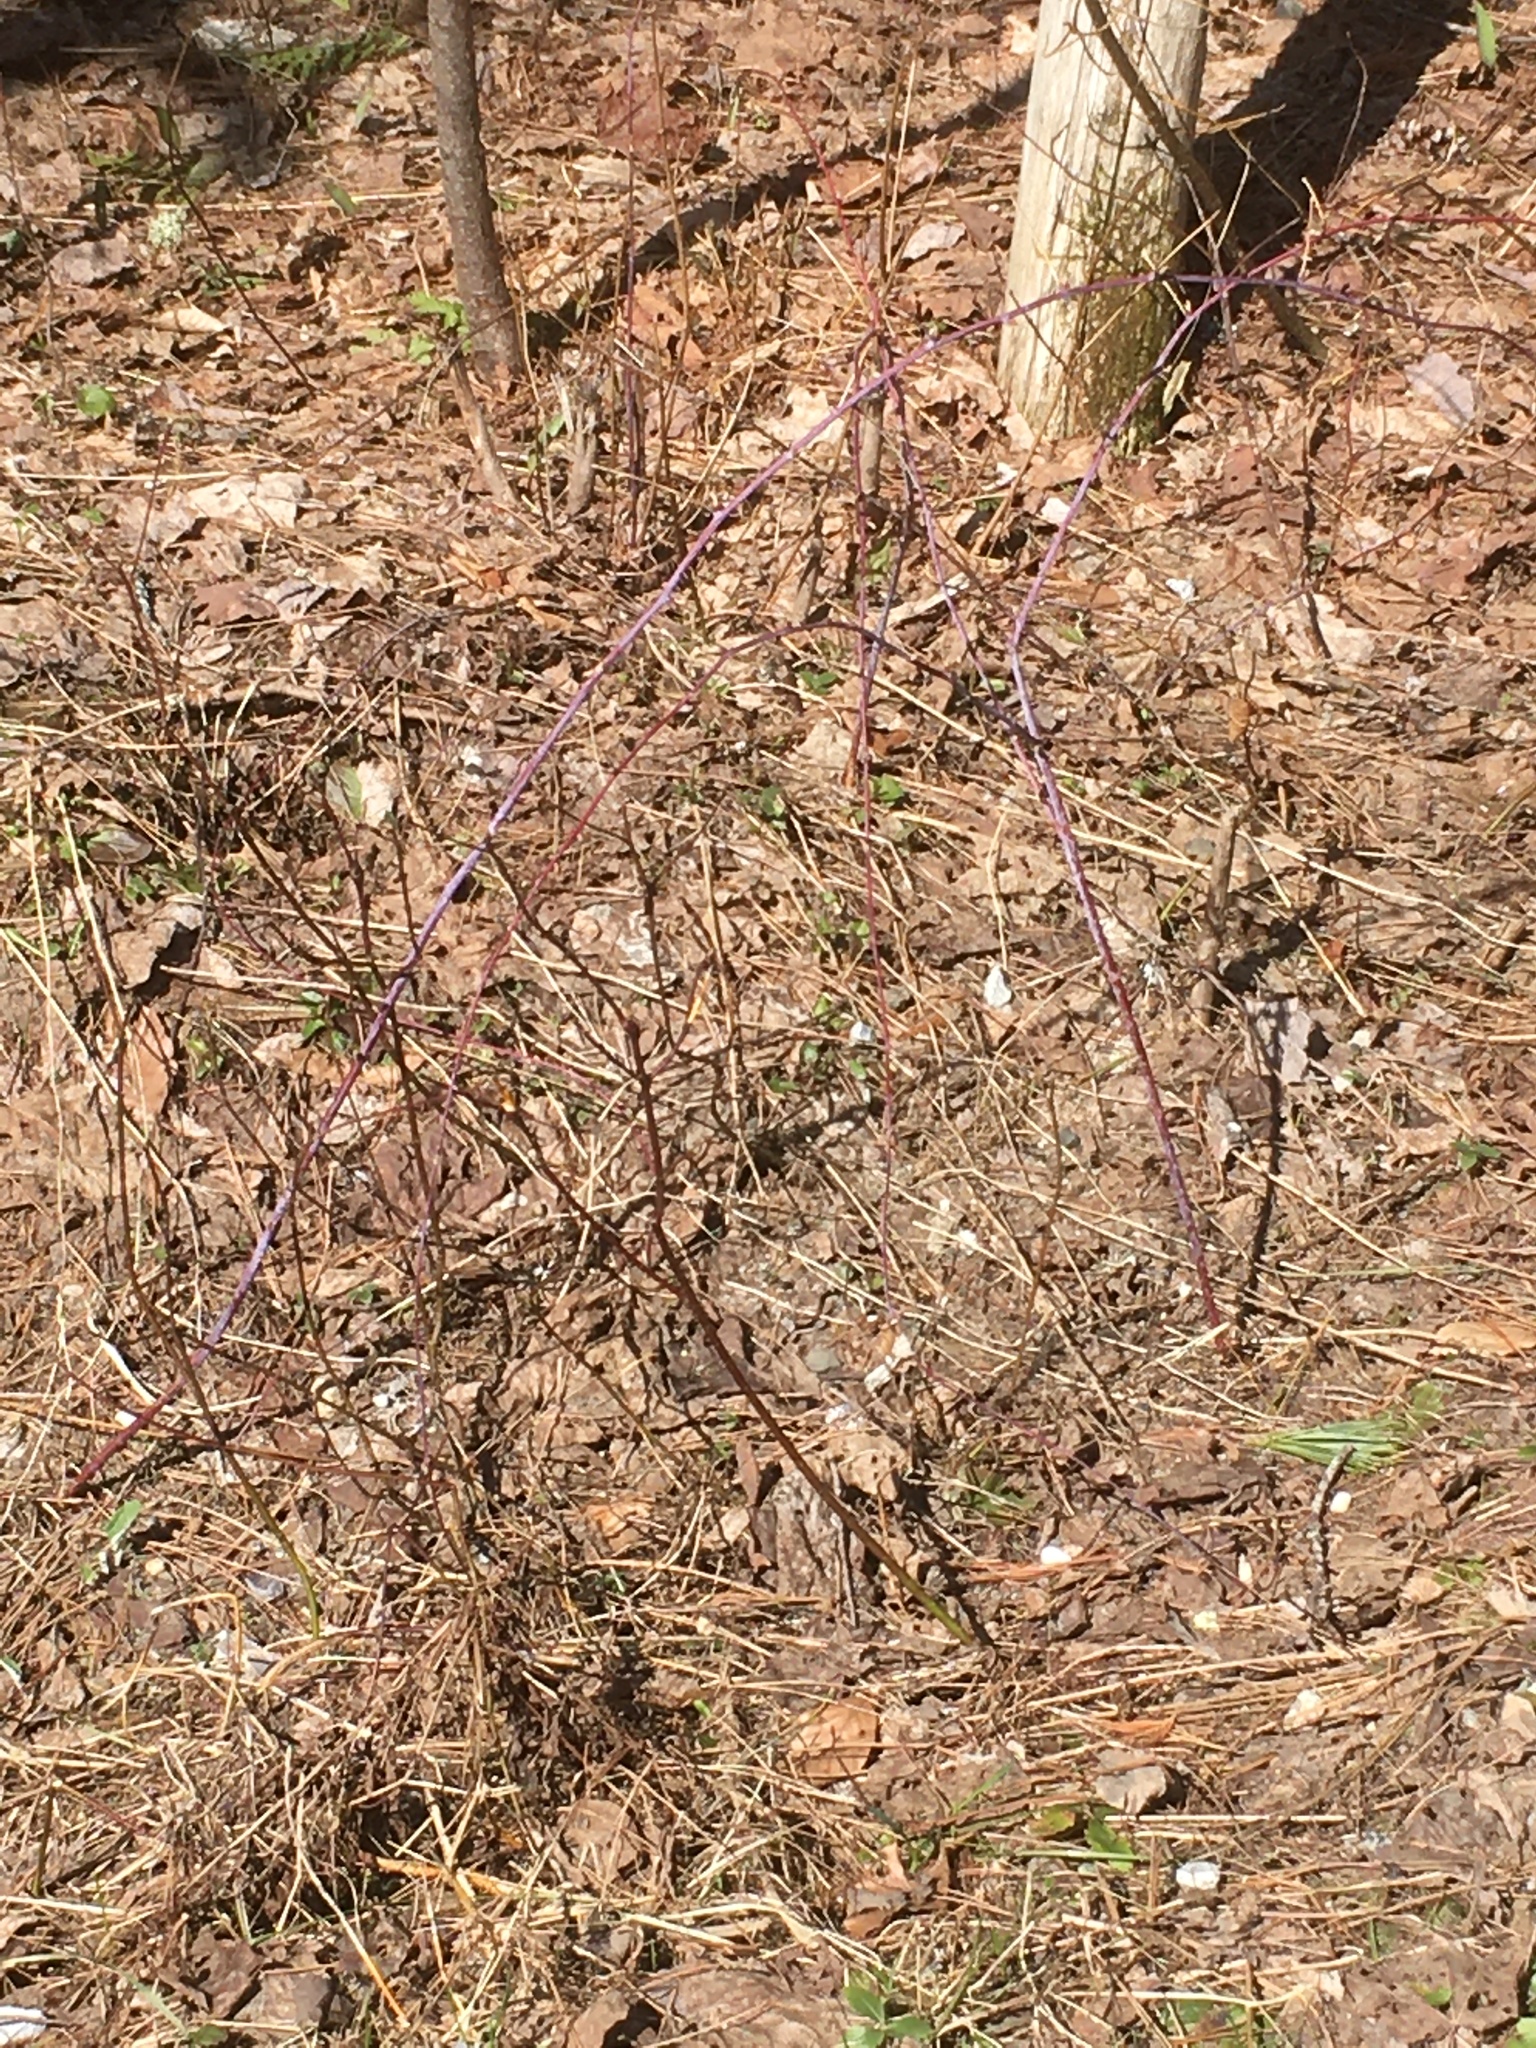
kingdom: Plantae
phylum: Tracheophyta
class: Magnoliopsida
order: Rosales
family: Rosaceae
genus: Rubus
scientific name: Rubus occidentalis
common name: Black raspberry
